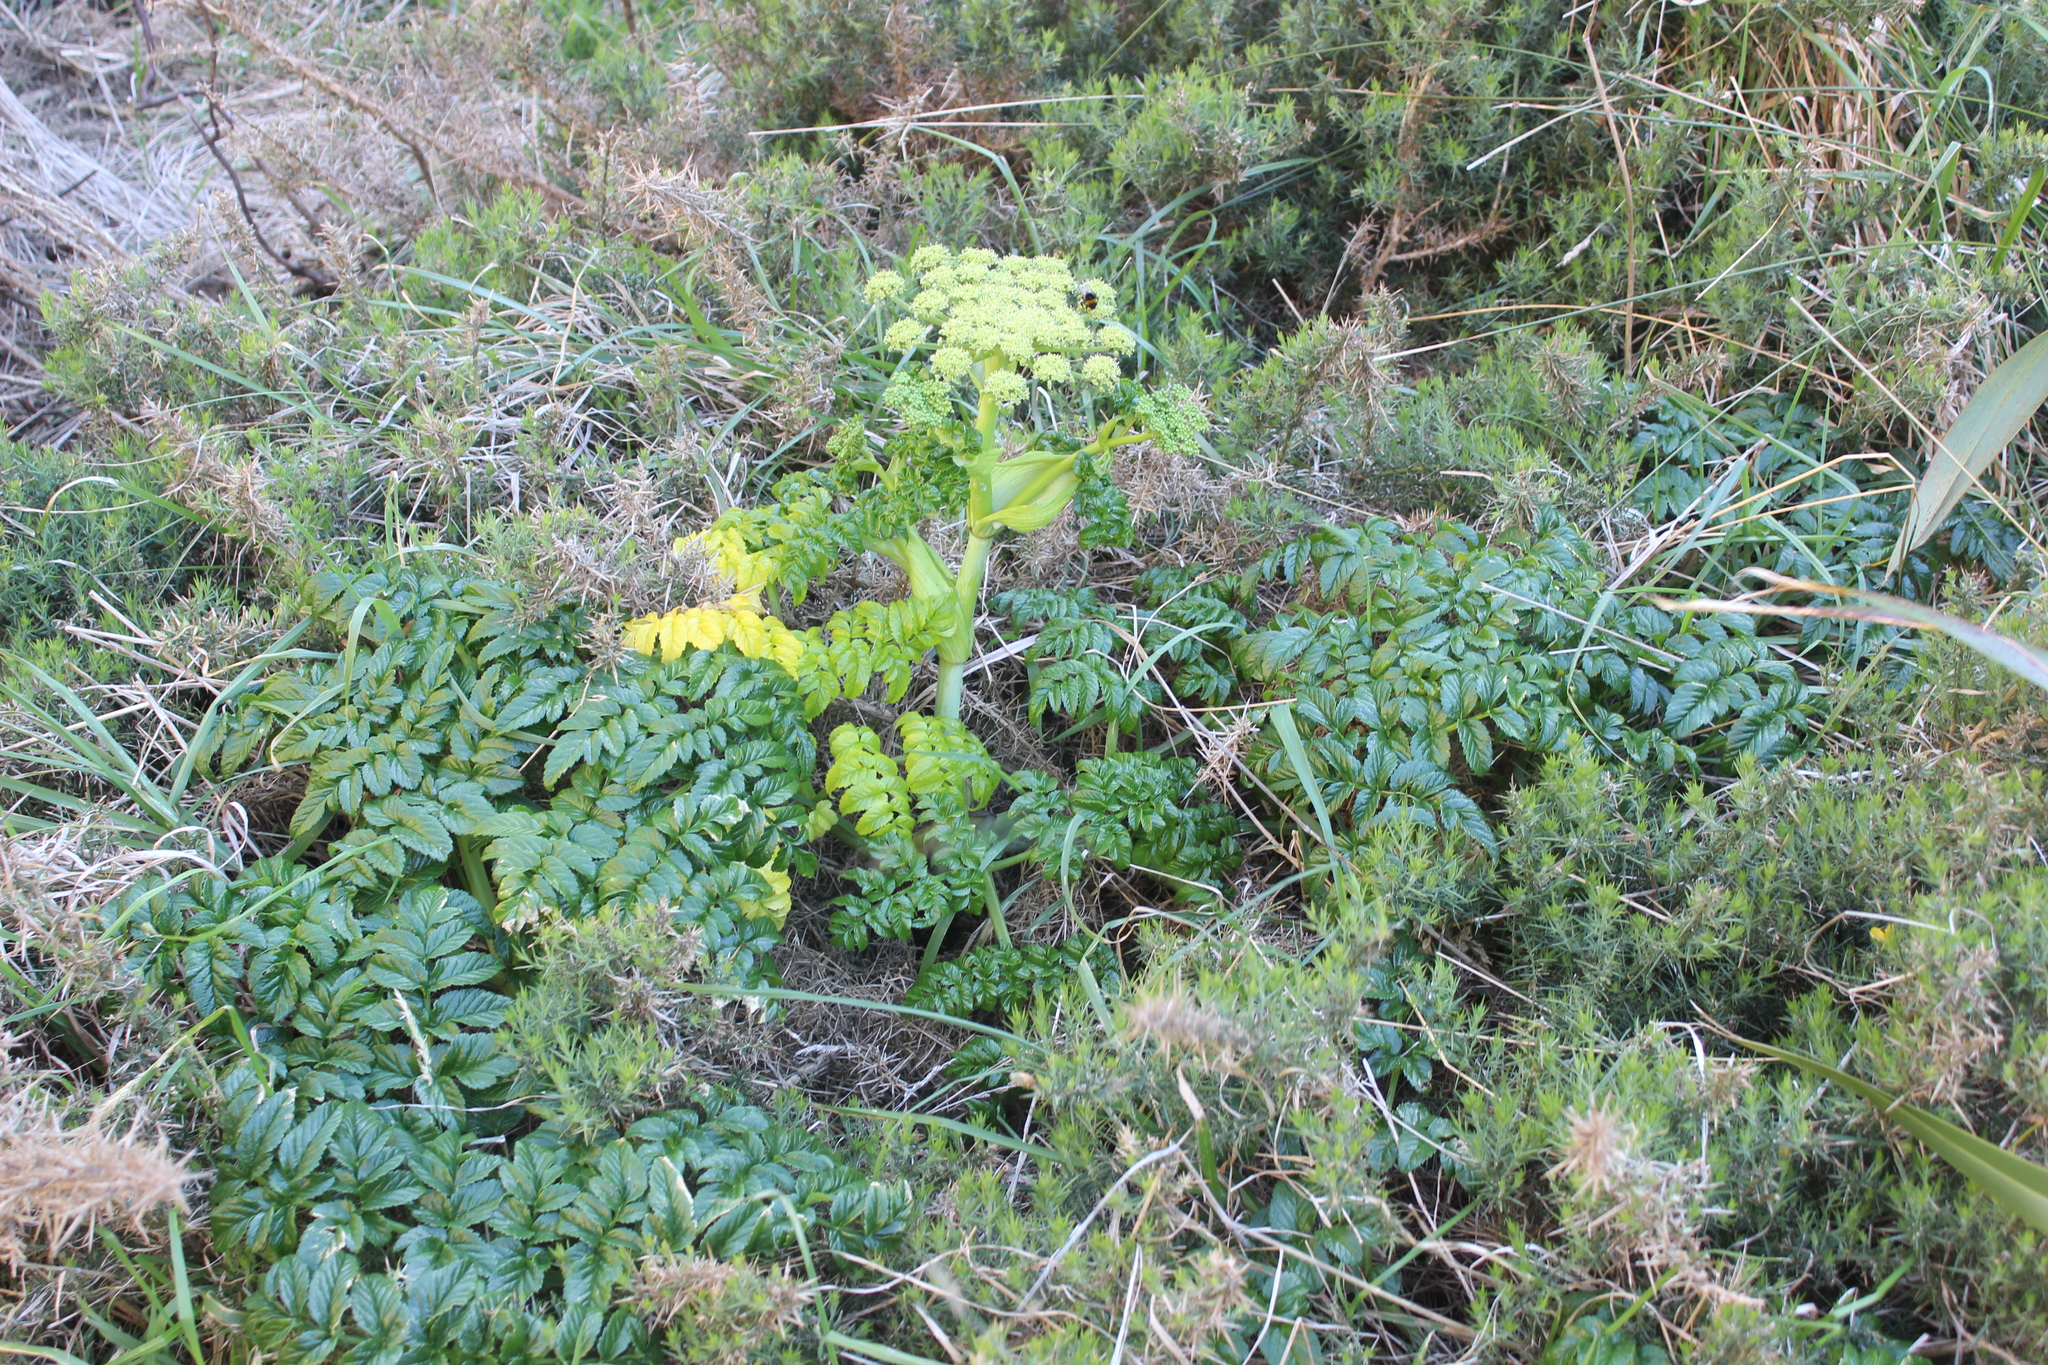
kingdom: Plantae
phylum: Tracheophyta
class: Magnoliopsida
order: Apiales
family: Apiaceae
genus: Angelica
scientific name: Angelica pachycarpa
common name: Portuguese angelica
